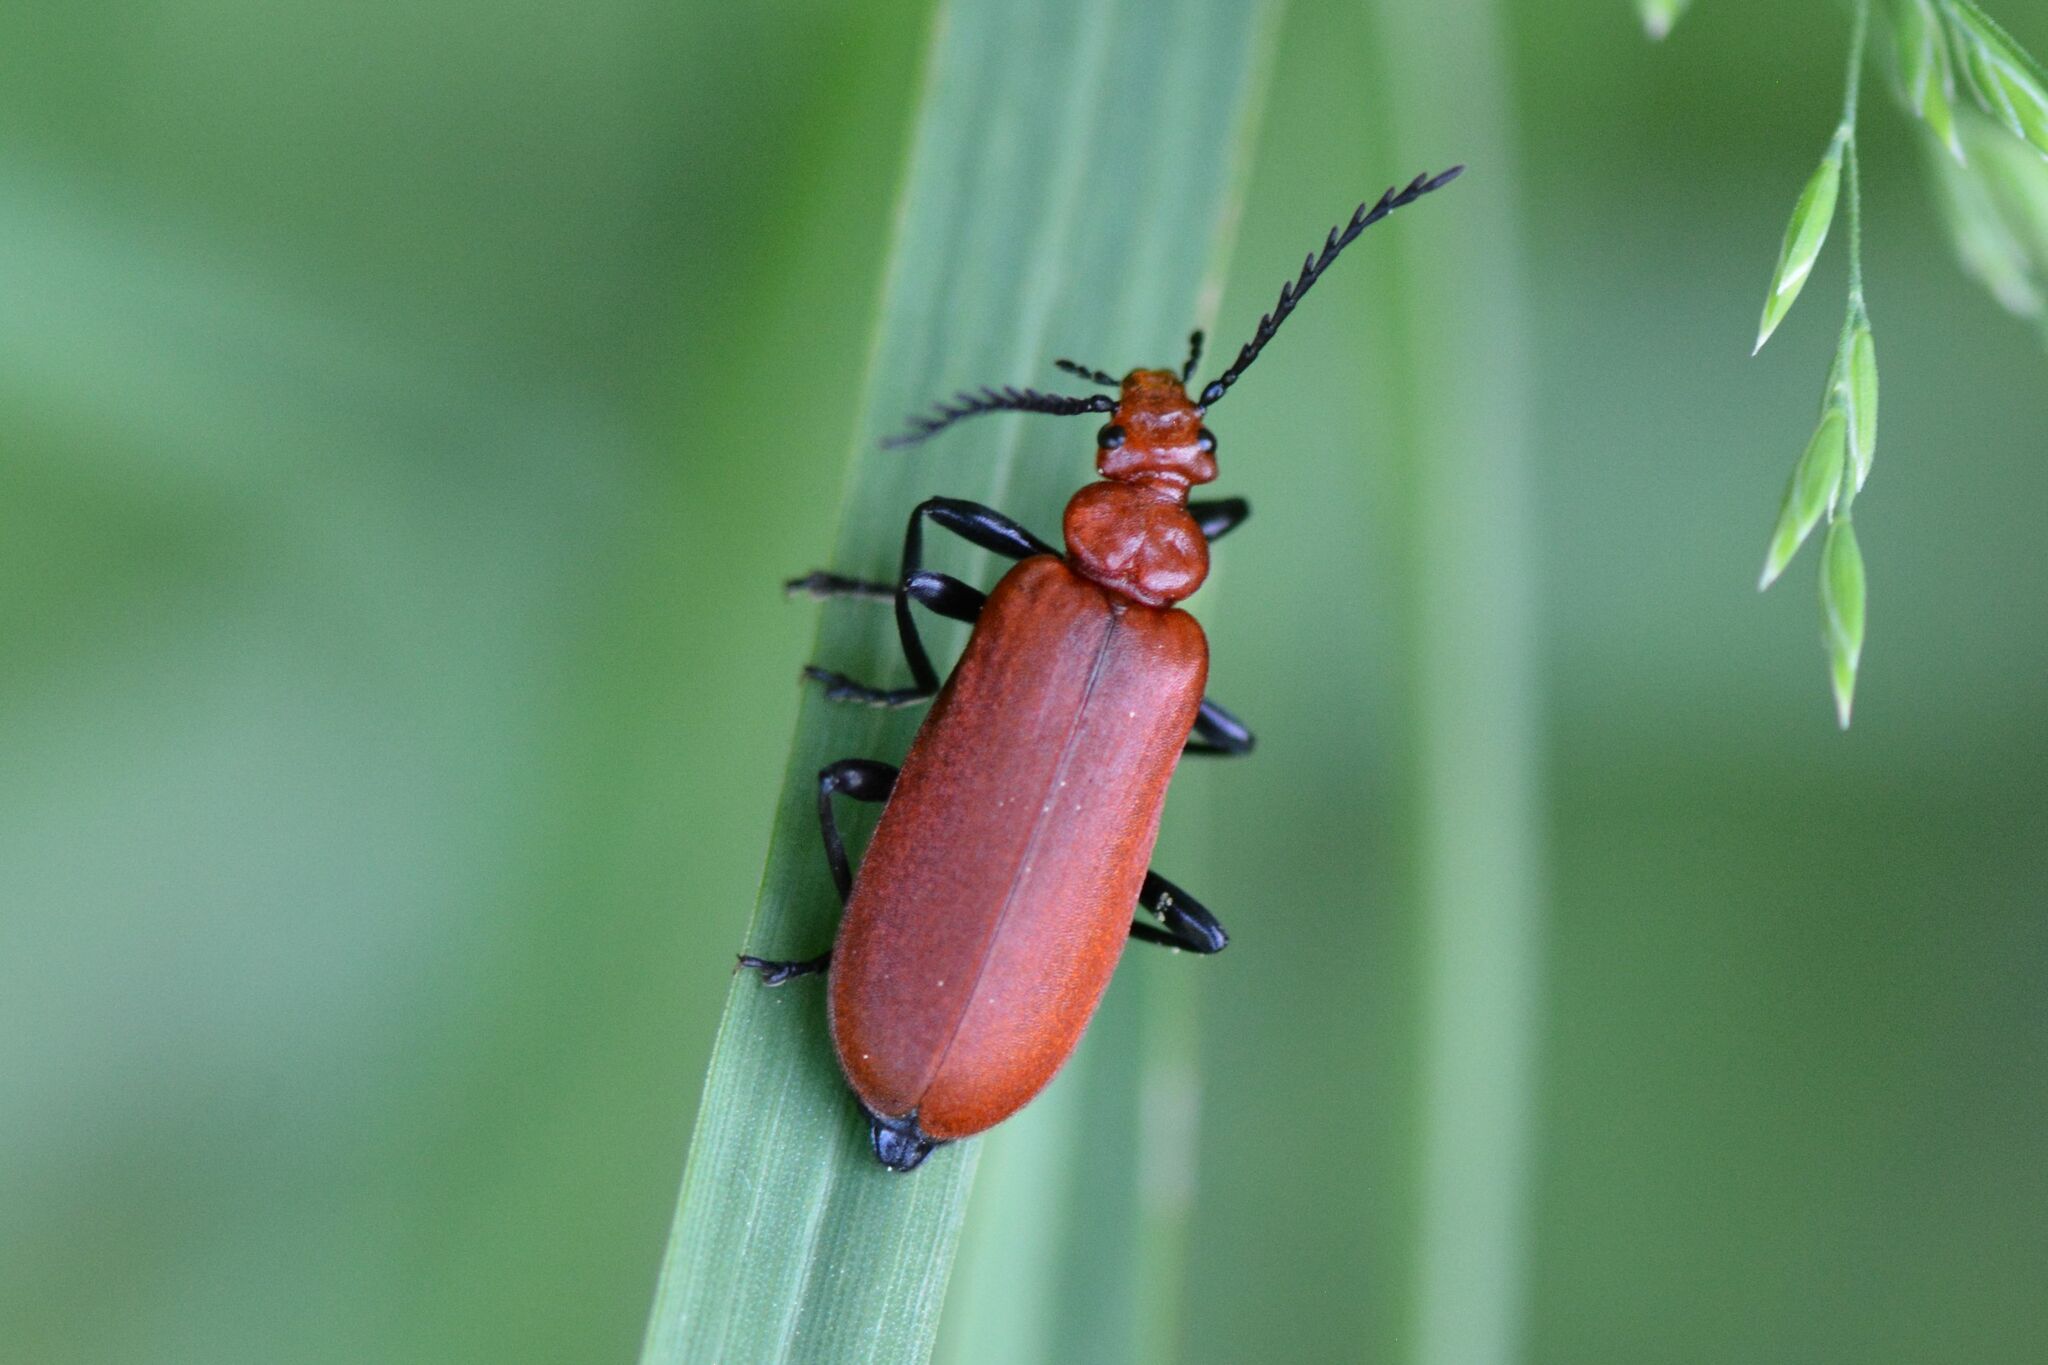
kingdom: Animalia
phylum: Arthropoda
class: Insecta
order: Coleoptera
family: Pyrochroidae
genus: Pyrochroa
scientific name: Pyrochroa serraticornis
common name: Red-headed cardinal beetle
